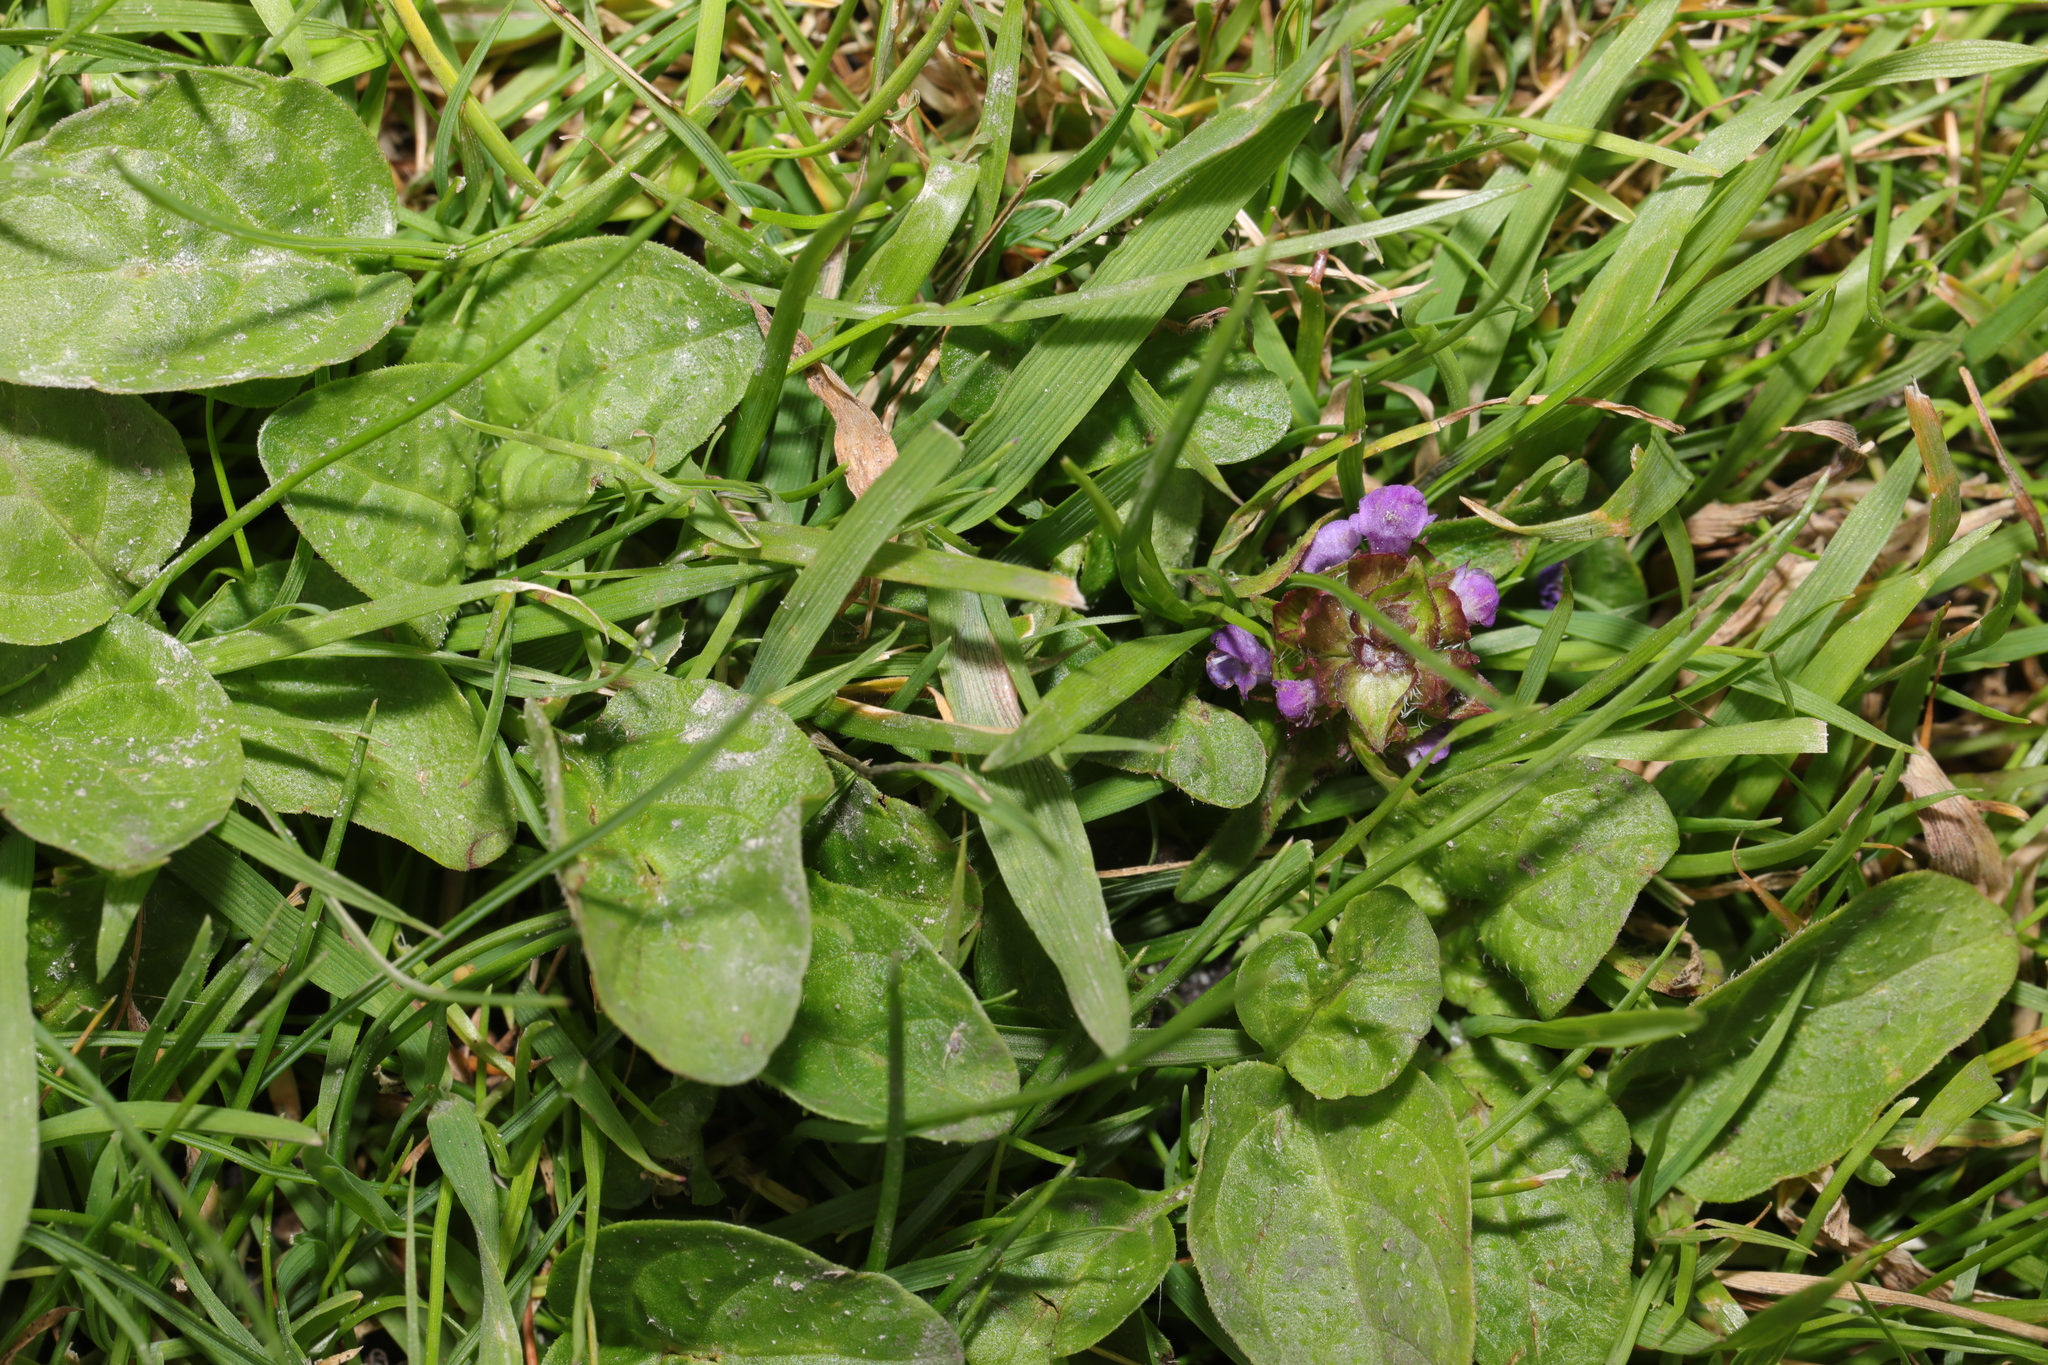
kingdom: Plantae
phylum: Tracheophyta
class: Magnoliopsida
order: Lamiales
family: Lamiaceae
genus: Prunella
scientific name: Prunella vulgaris
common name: Heal-all
